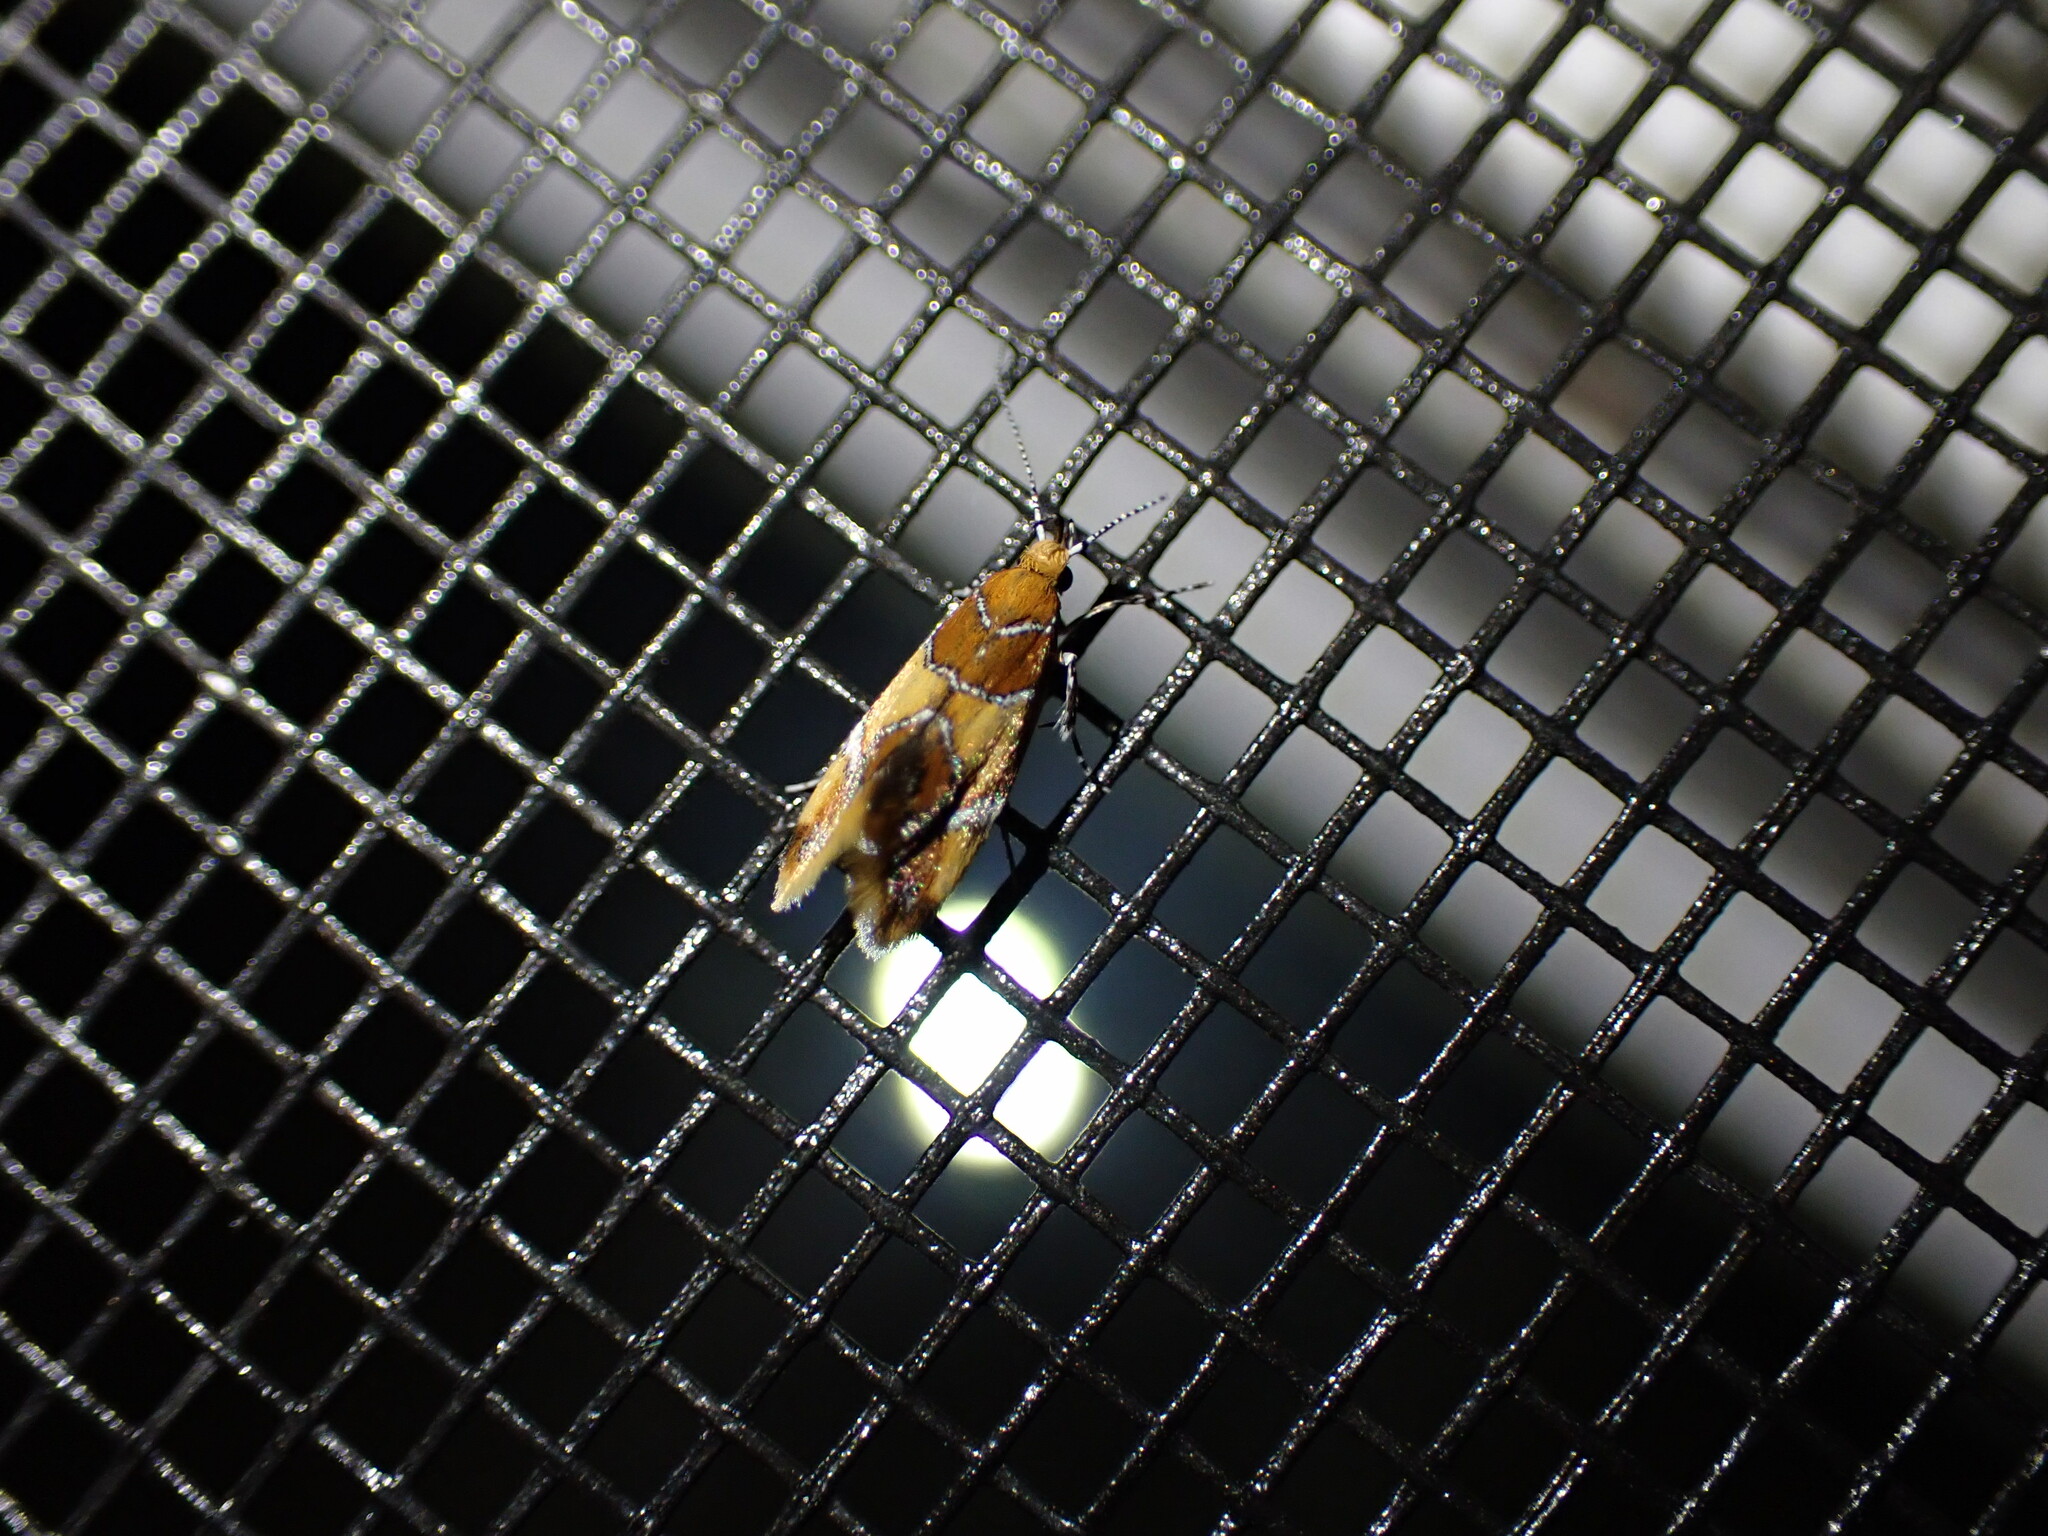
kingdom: Animalia
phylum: Arthropoda
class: Insecta
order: Lepidoptera
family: Oecophoridae
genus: Callima
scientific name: Callima argenticinctella
